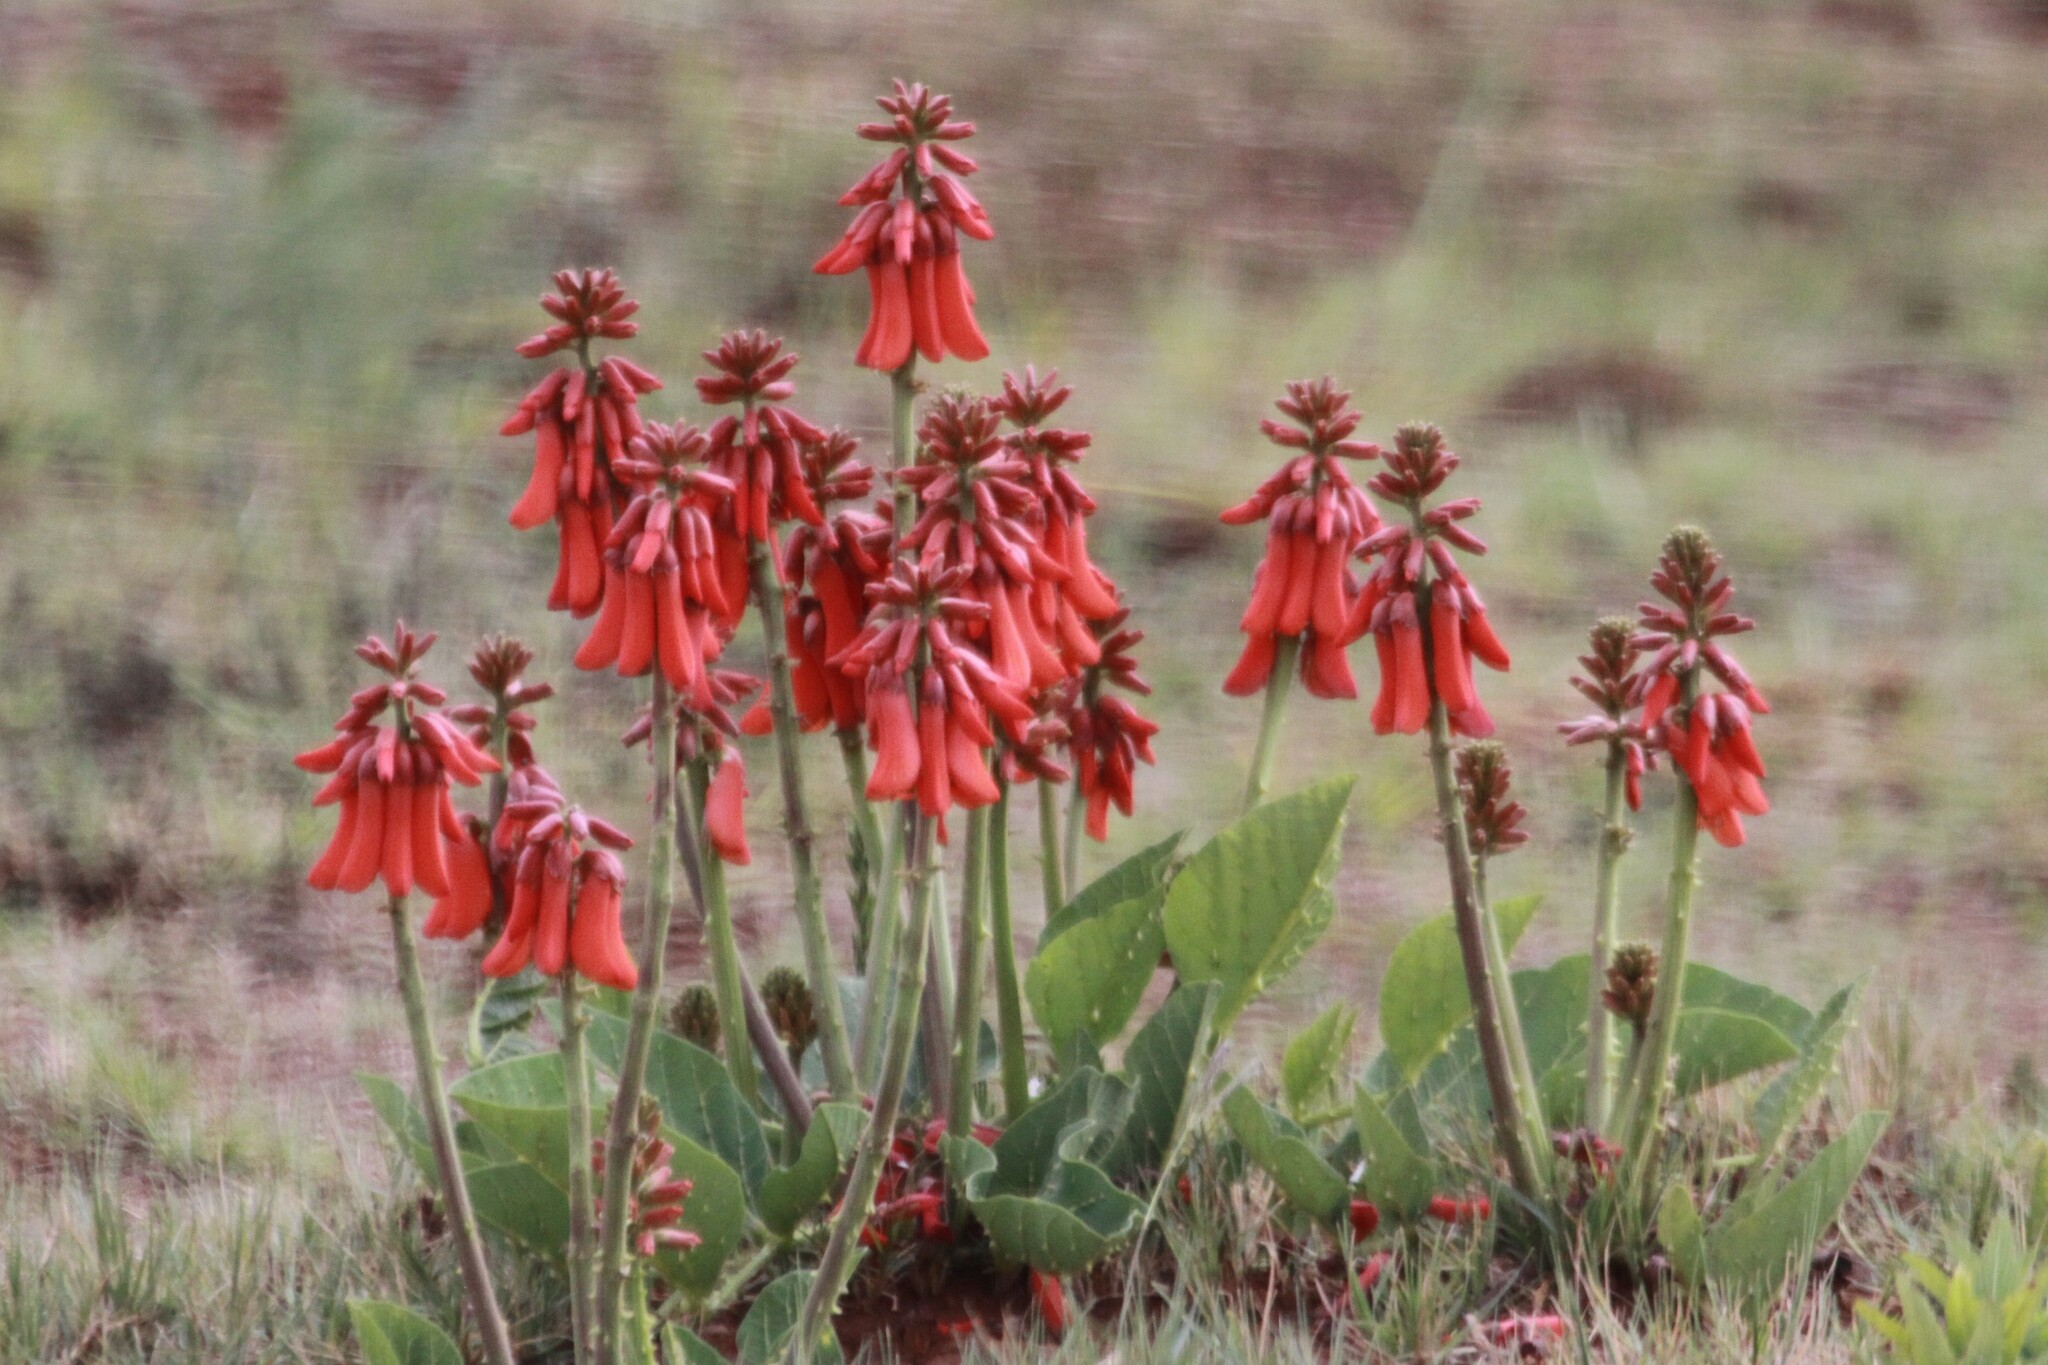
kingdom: Plantae
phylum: Tracheophyta
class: Magnoliopsida
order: Fabales
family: Fabaceae
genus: Erythrina
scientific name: Erythrina zeyheri
